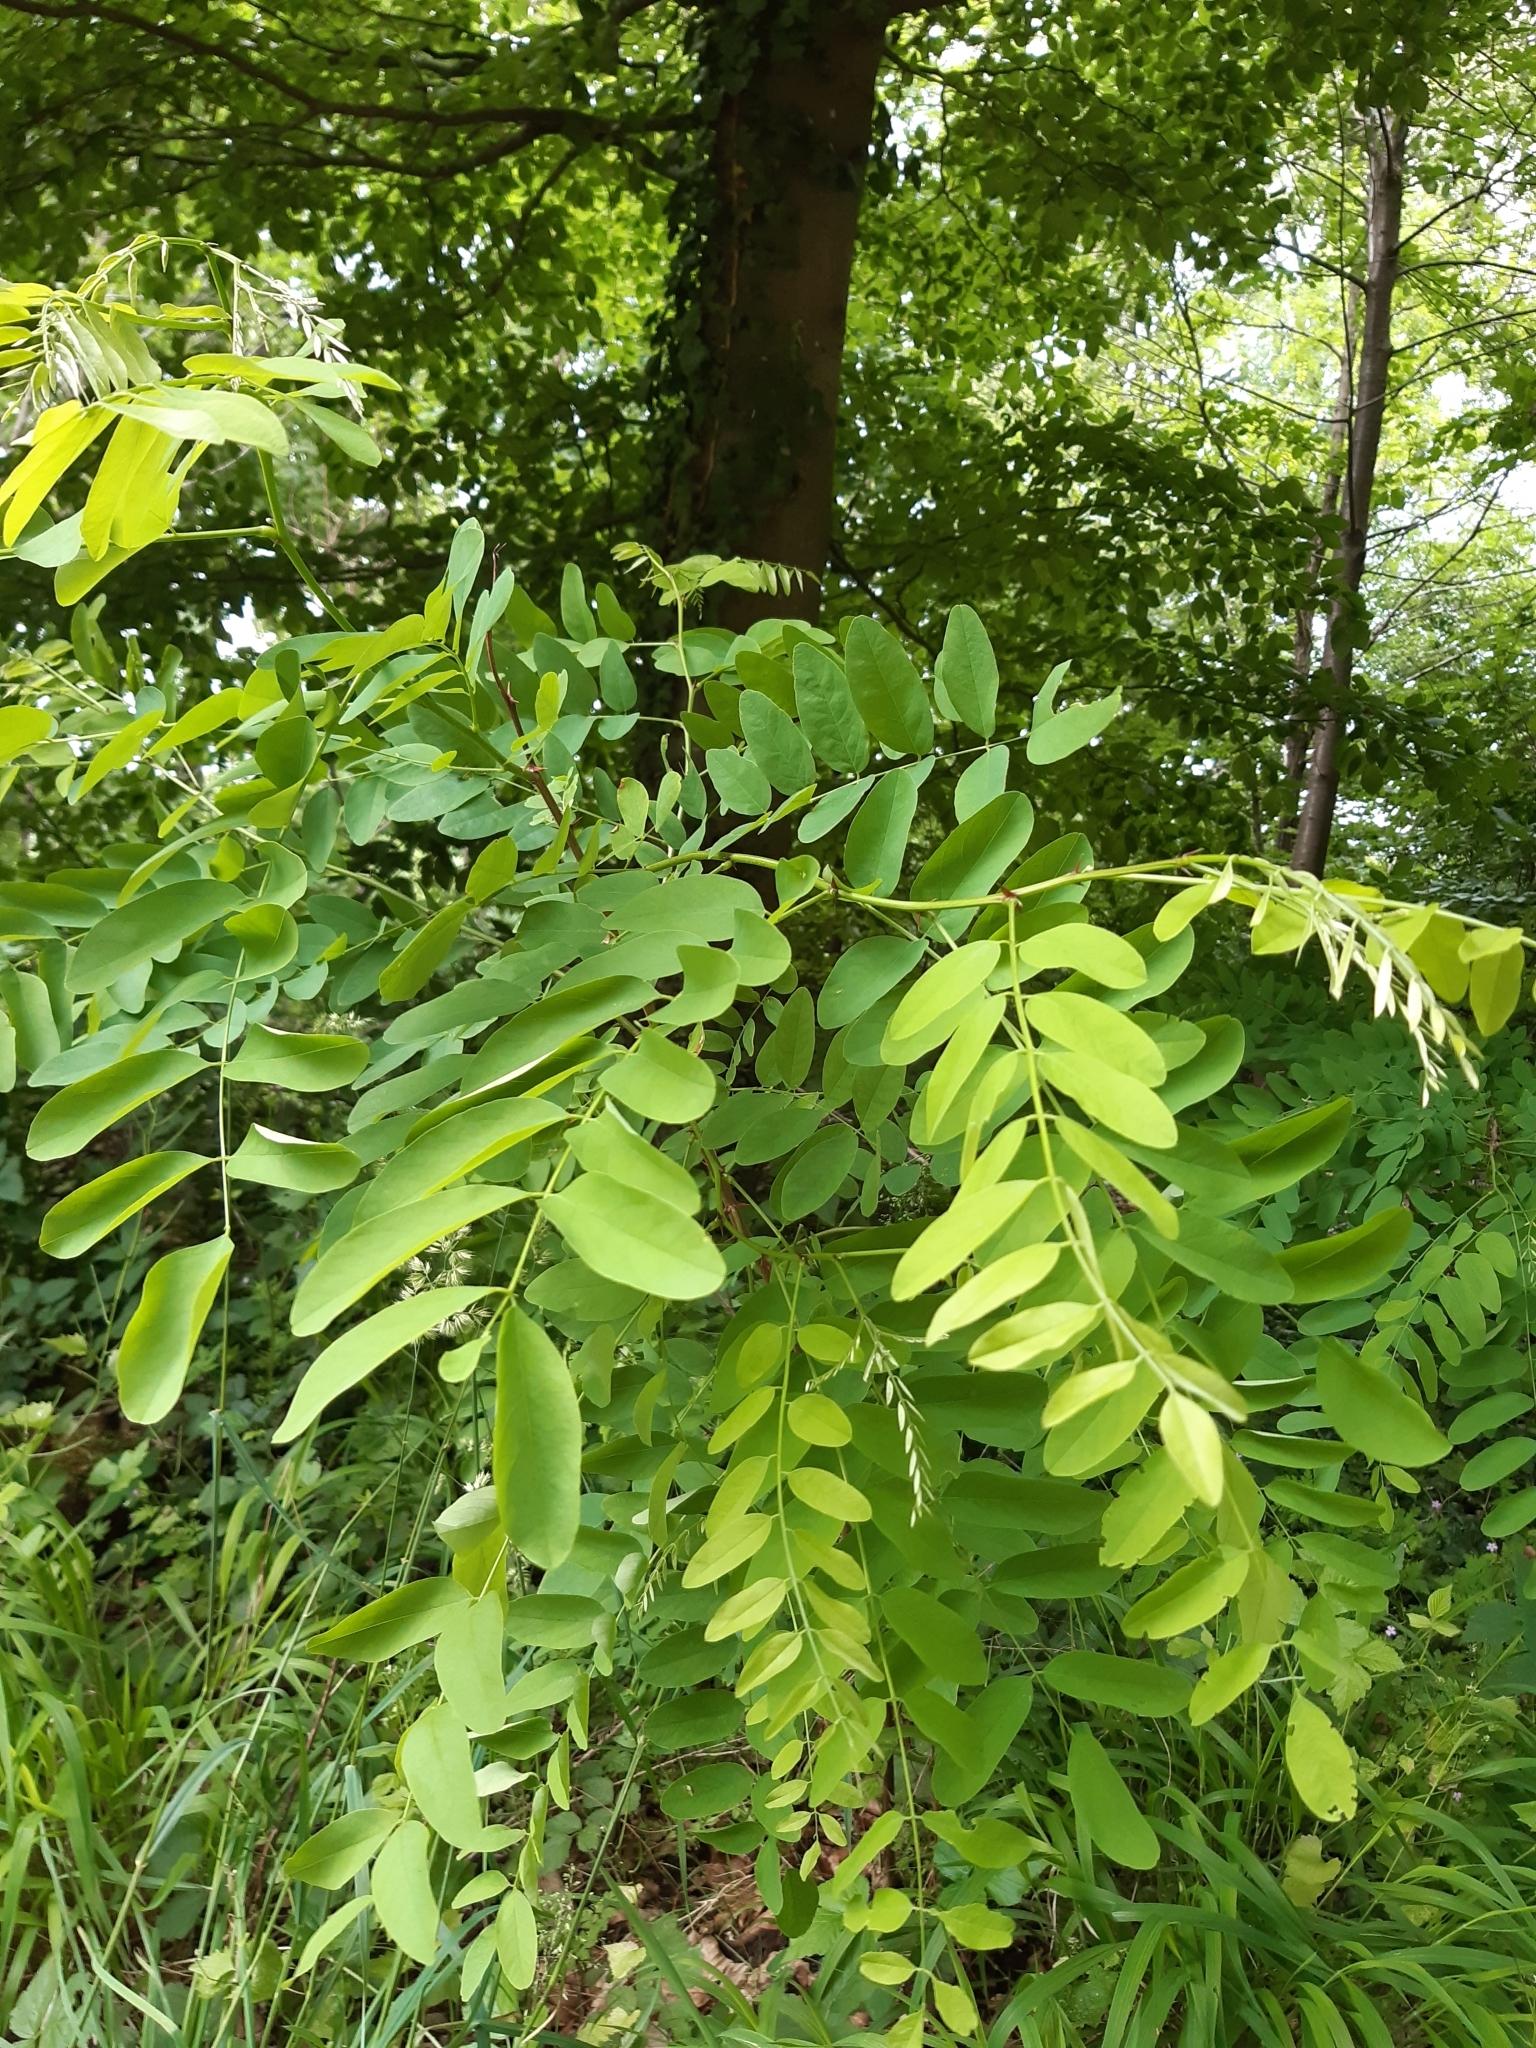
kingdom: Plantae
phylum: Tracheophyta
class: Magnoliopsida
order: Fabales
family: Fabaceae
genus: Robinia
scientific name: Robinia pseudoacacia
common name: Black locust
